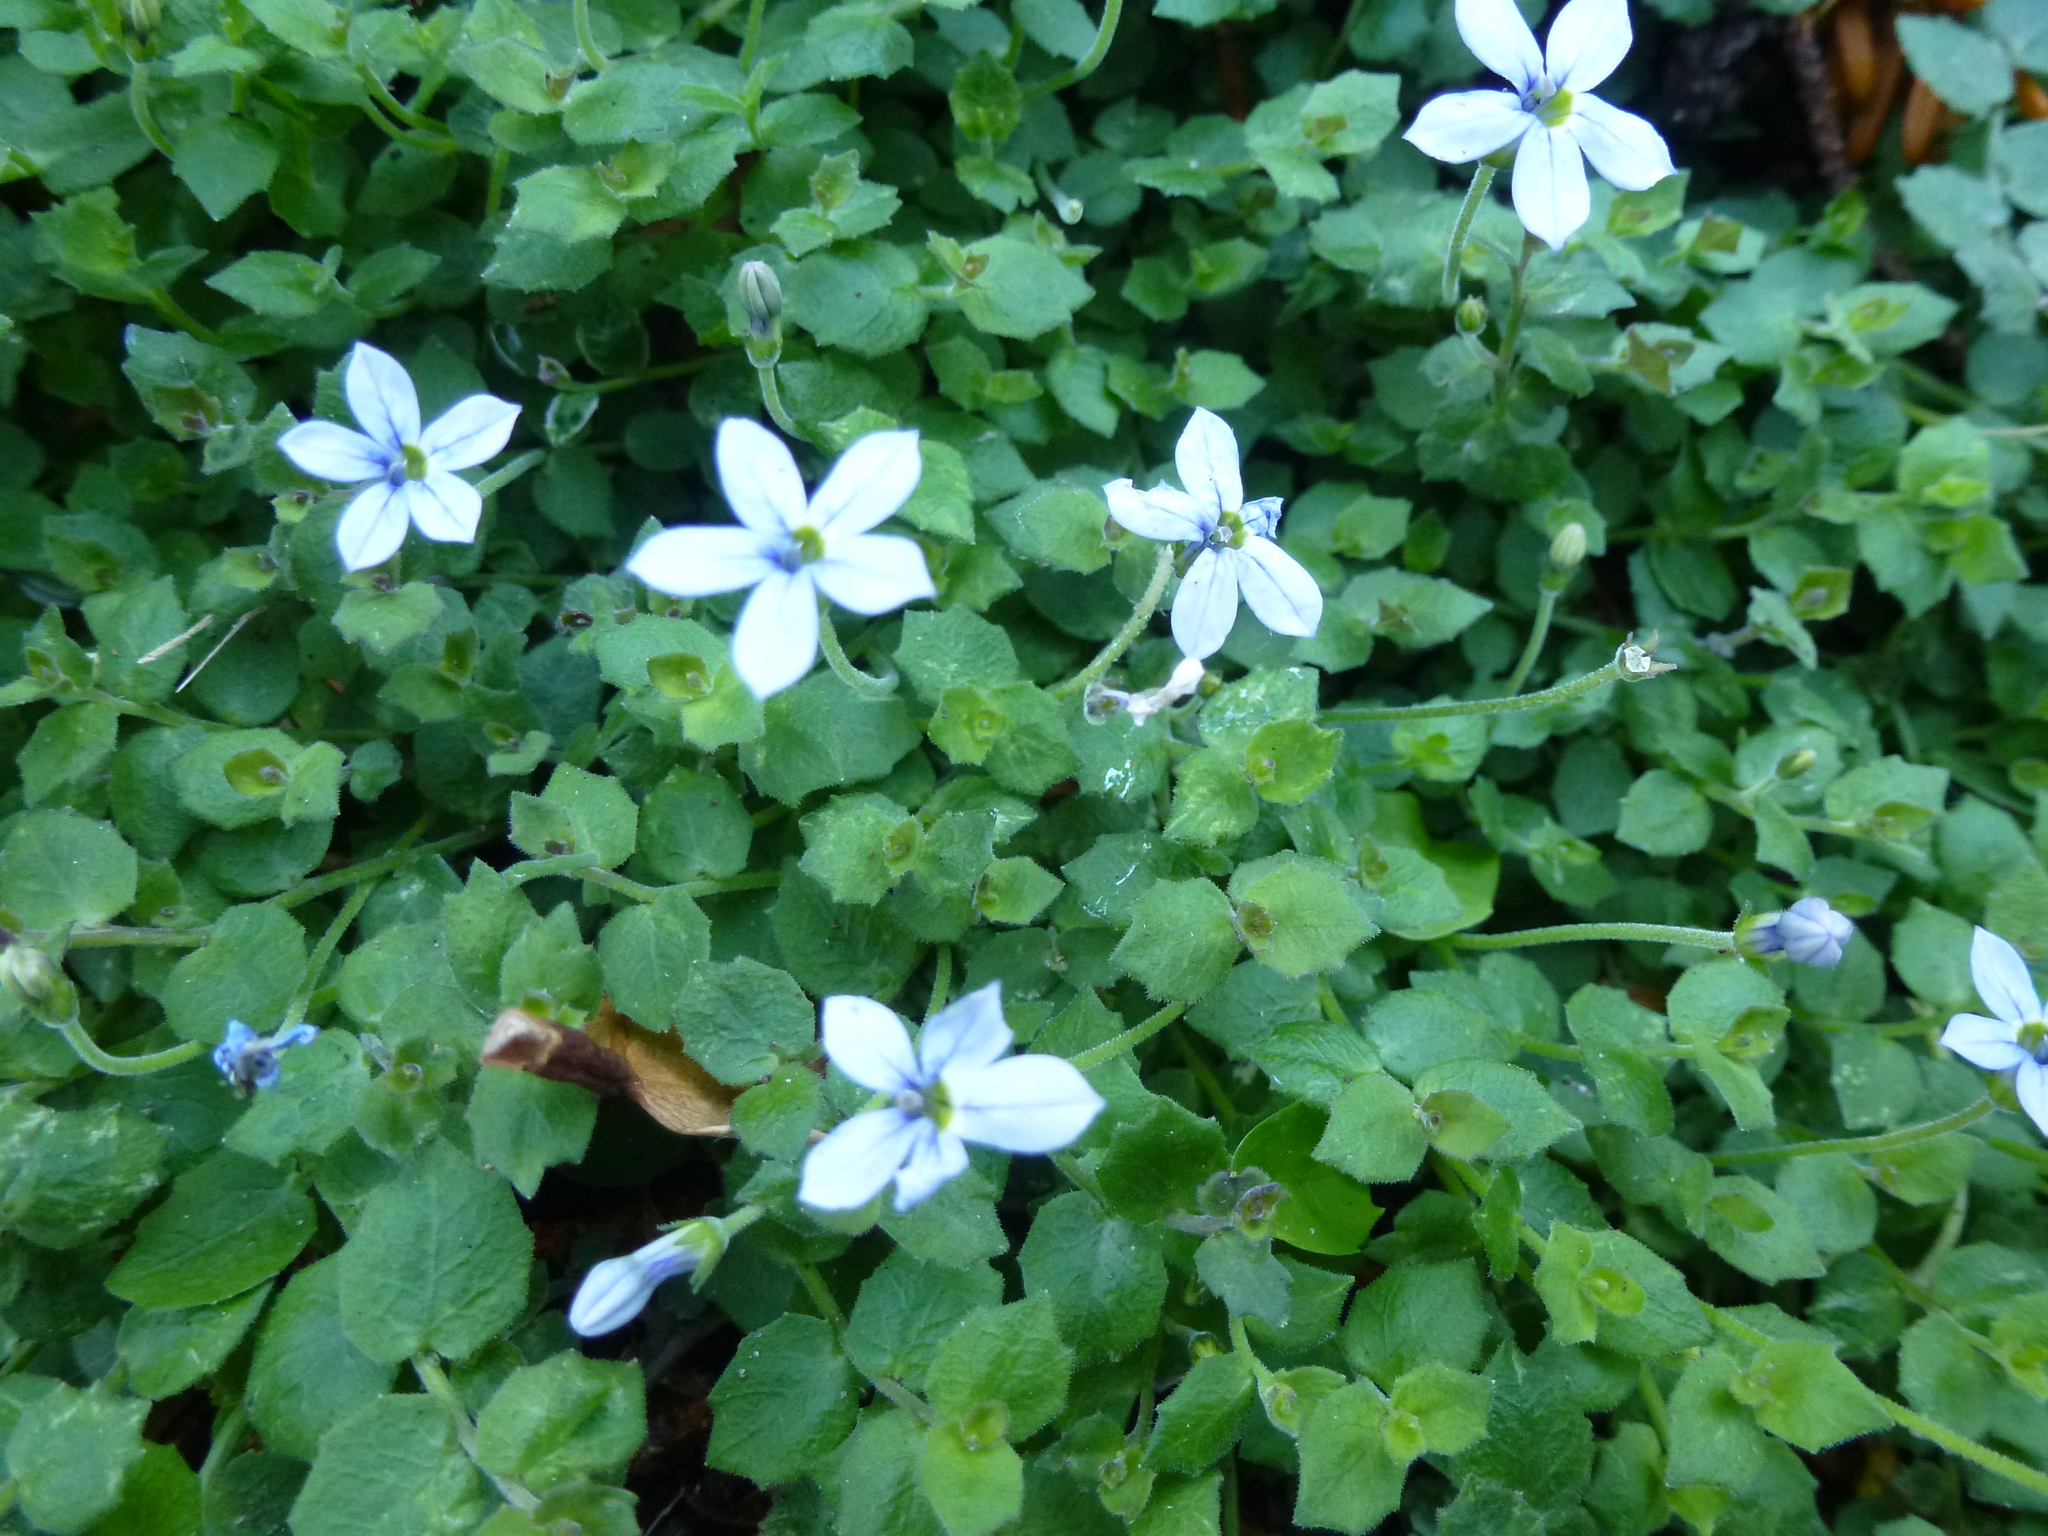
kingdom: Plantae
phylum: Tracheophyta
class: Magnoliopsida
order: Asterales
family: Campanulaceae
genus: Lobelia
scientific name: Lobelia pedunculata
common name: Matted pratia
